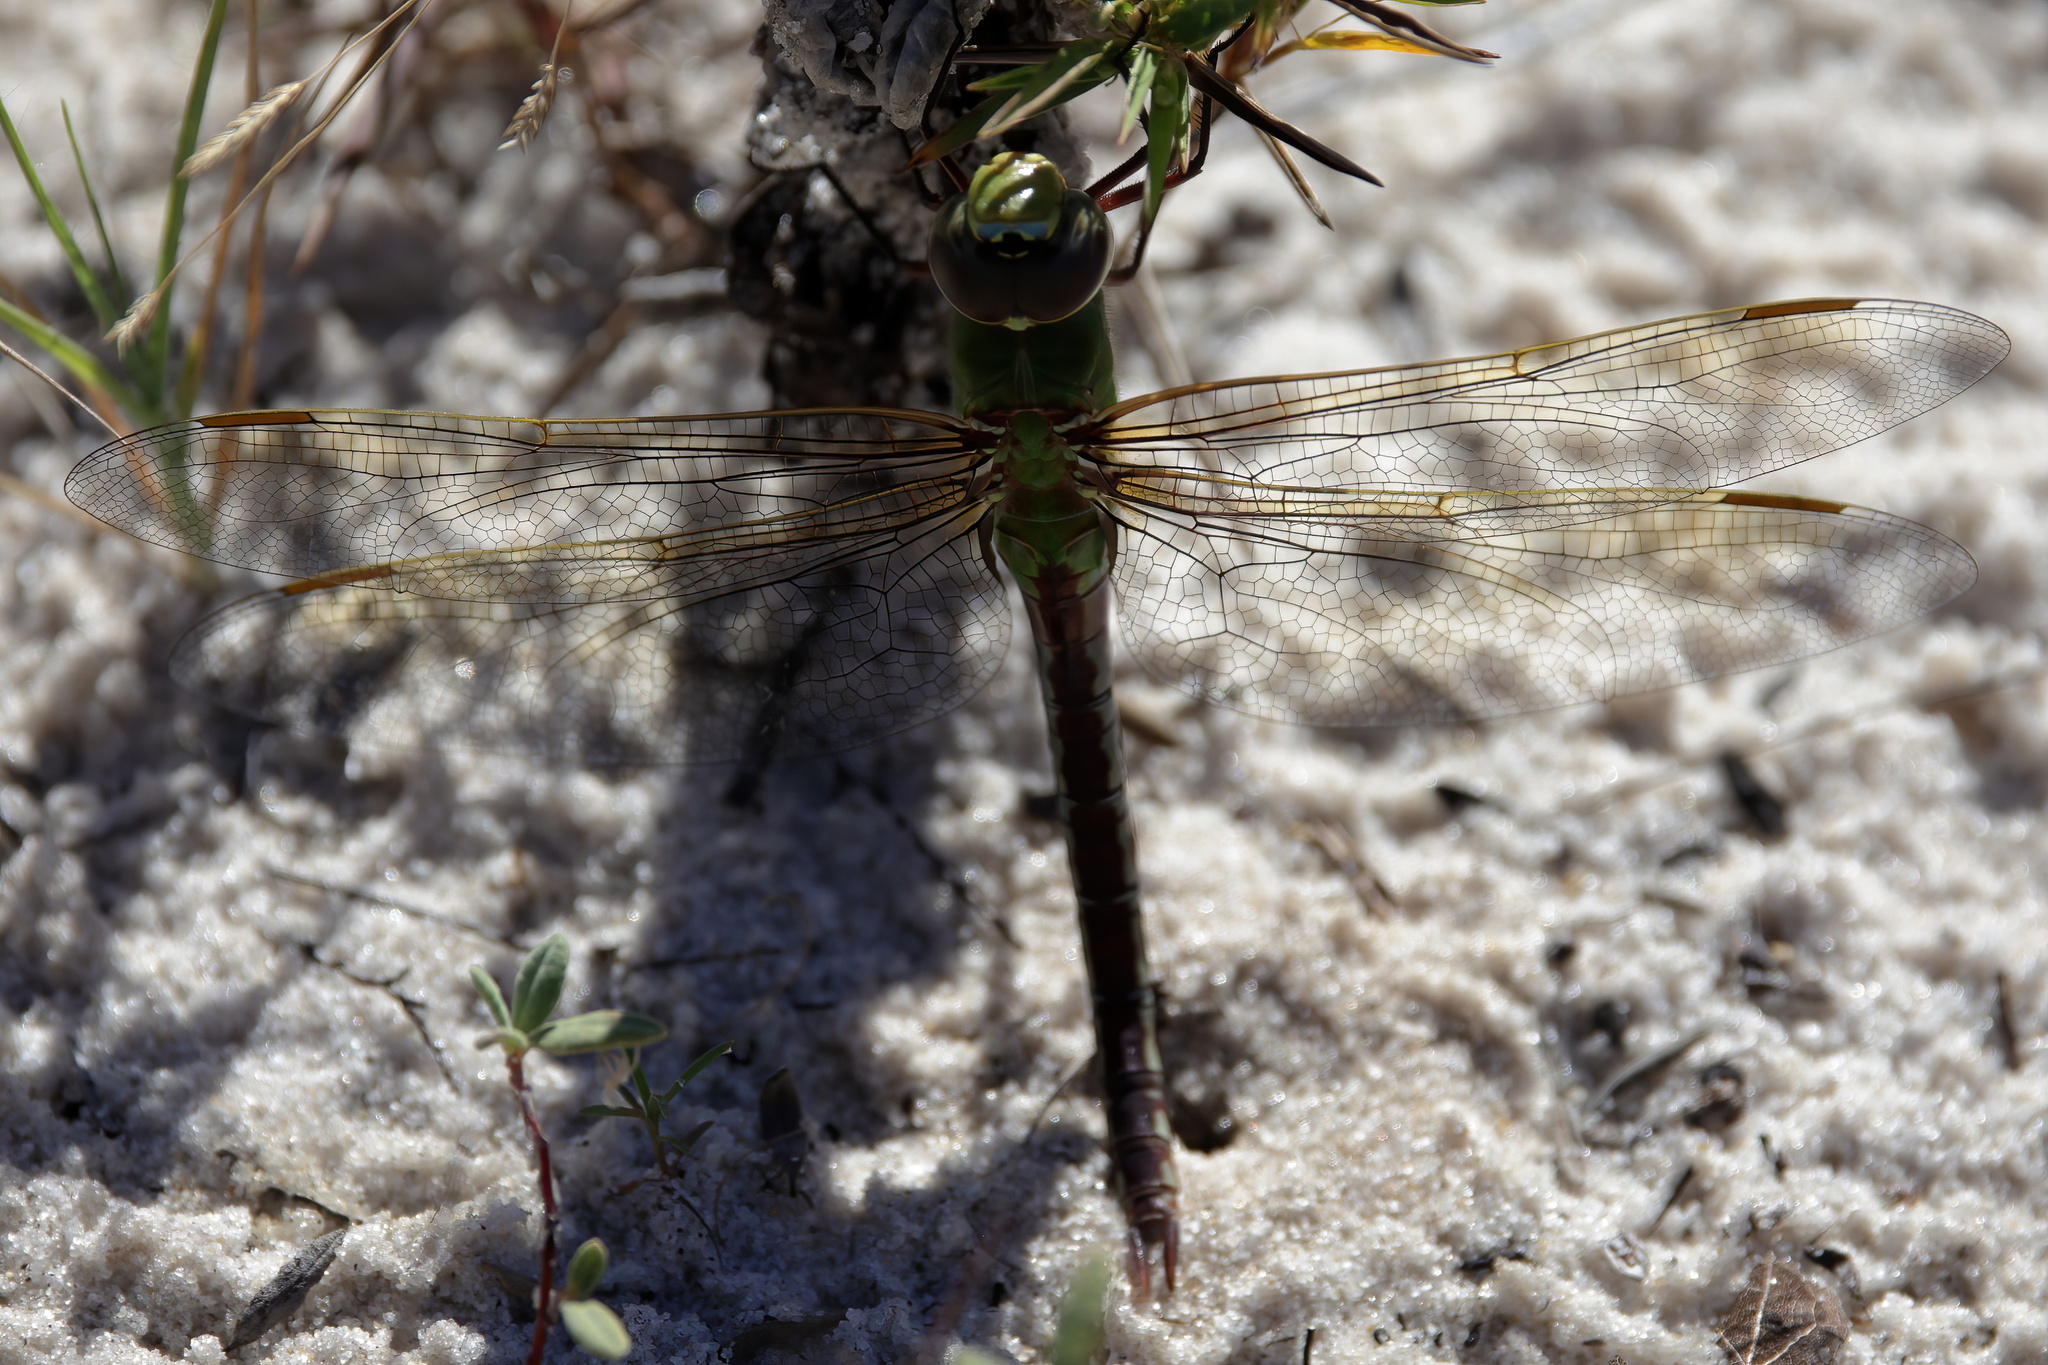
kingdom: Animalia
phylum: Arthropoda
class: Insecta
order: Odonata
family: Aeshnidae
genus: Anax
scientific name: Anax junius
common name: Common green darner
